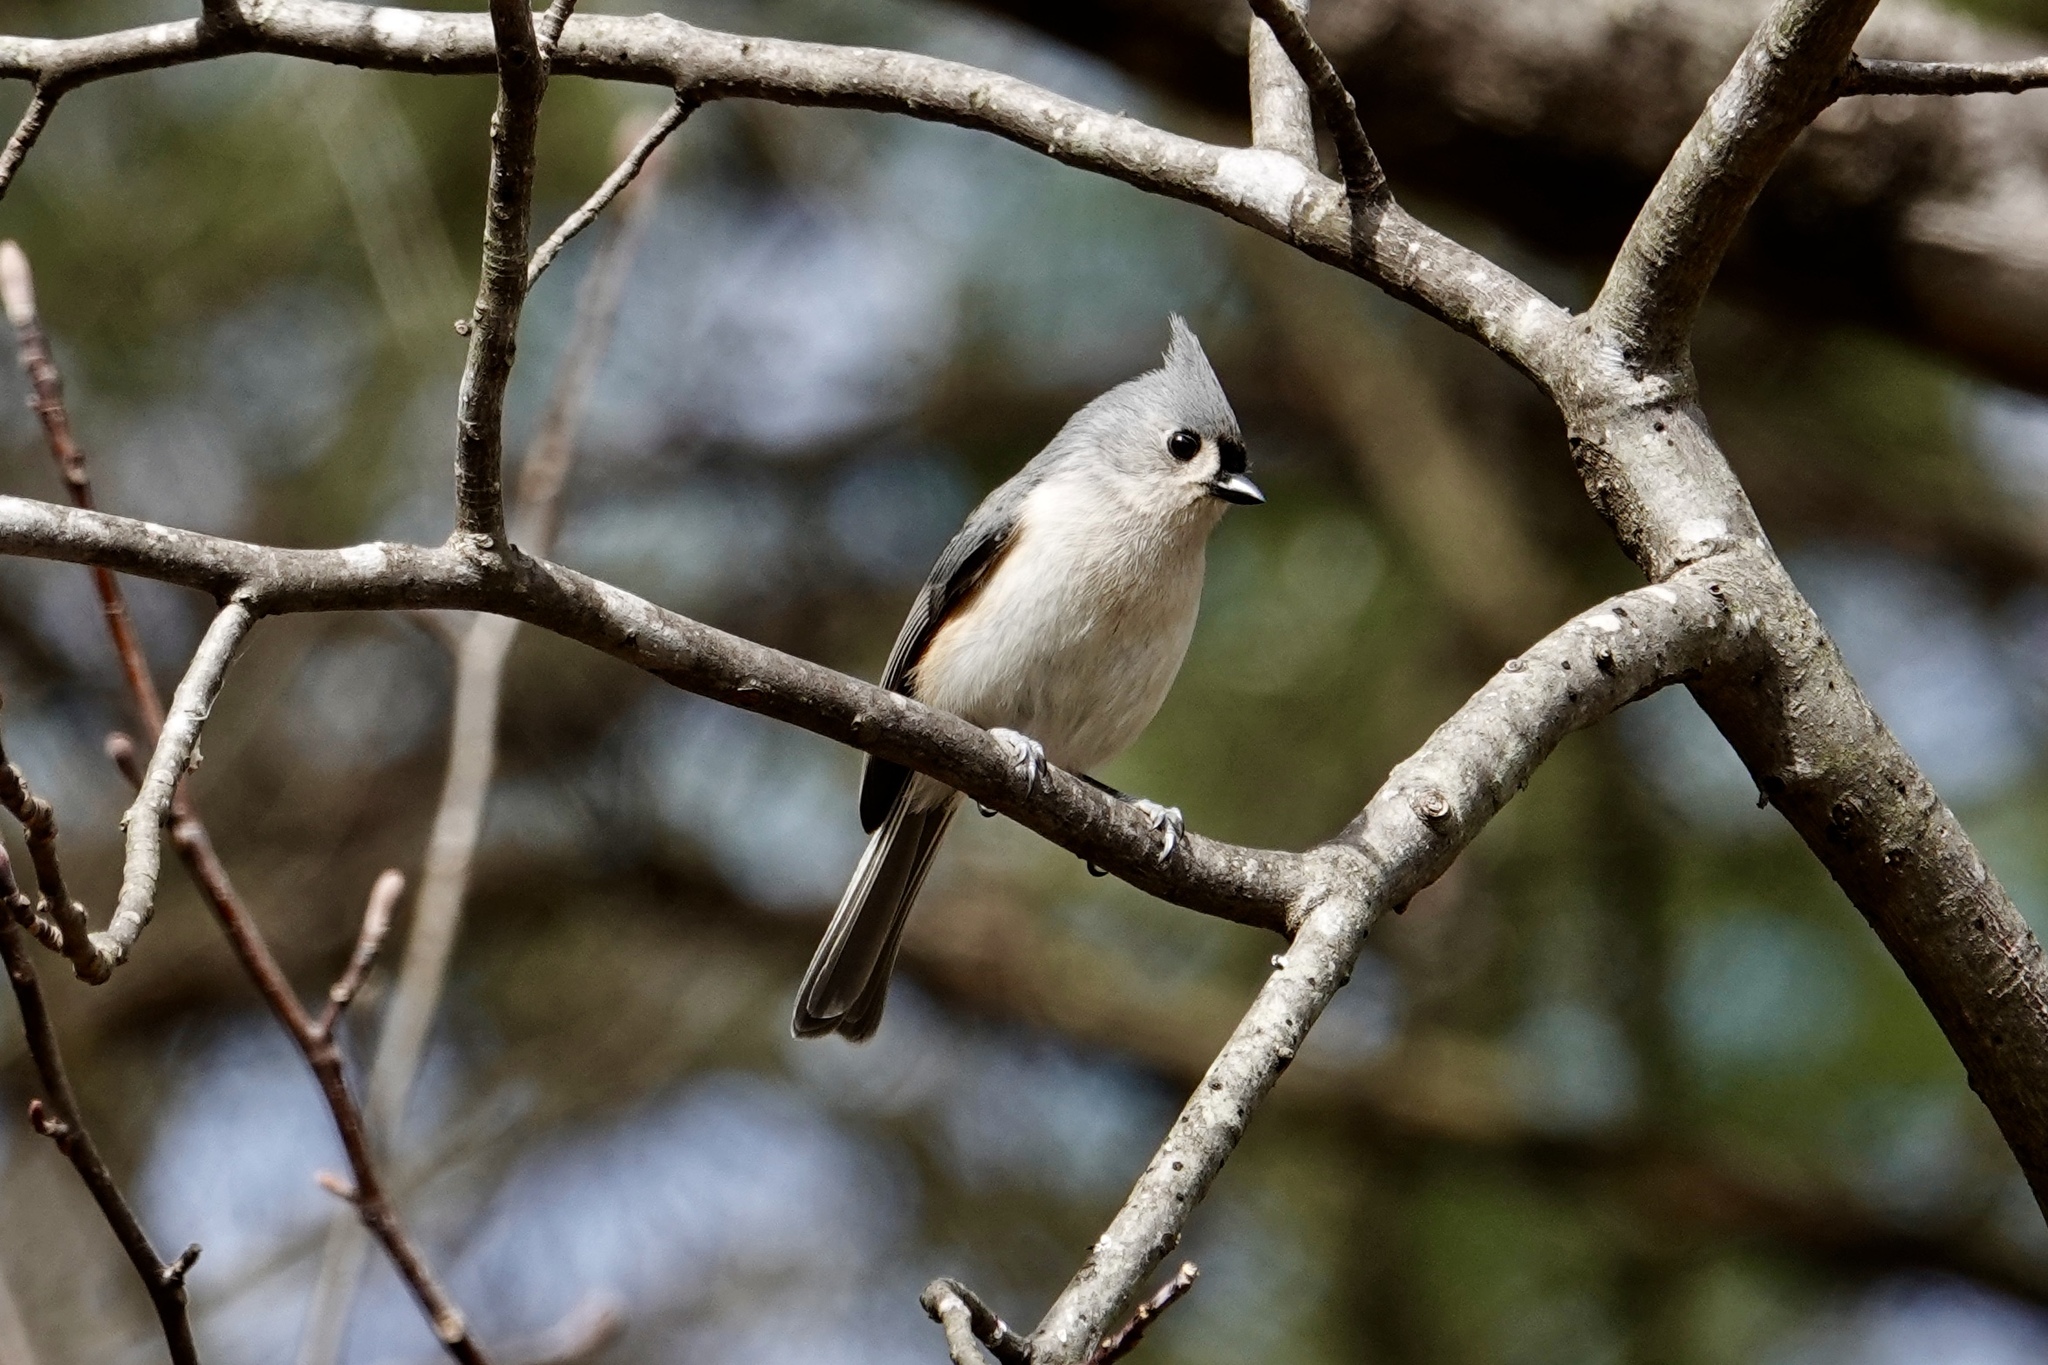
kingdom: Animalia
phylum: Chordata
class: Aves
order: Passeriformes
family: Paridae
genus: Baeolophus
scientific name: Baeolophus bicolor
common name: Tufted titmouse
